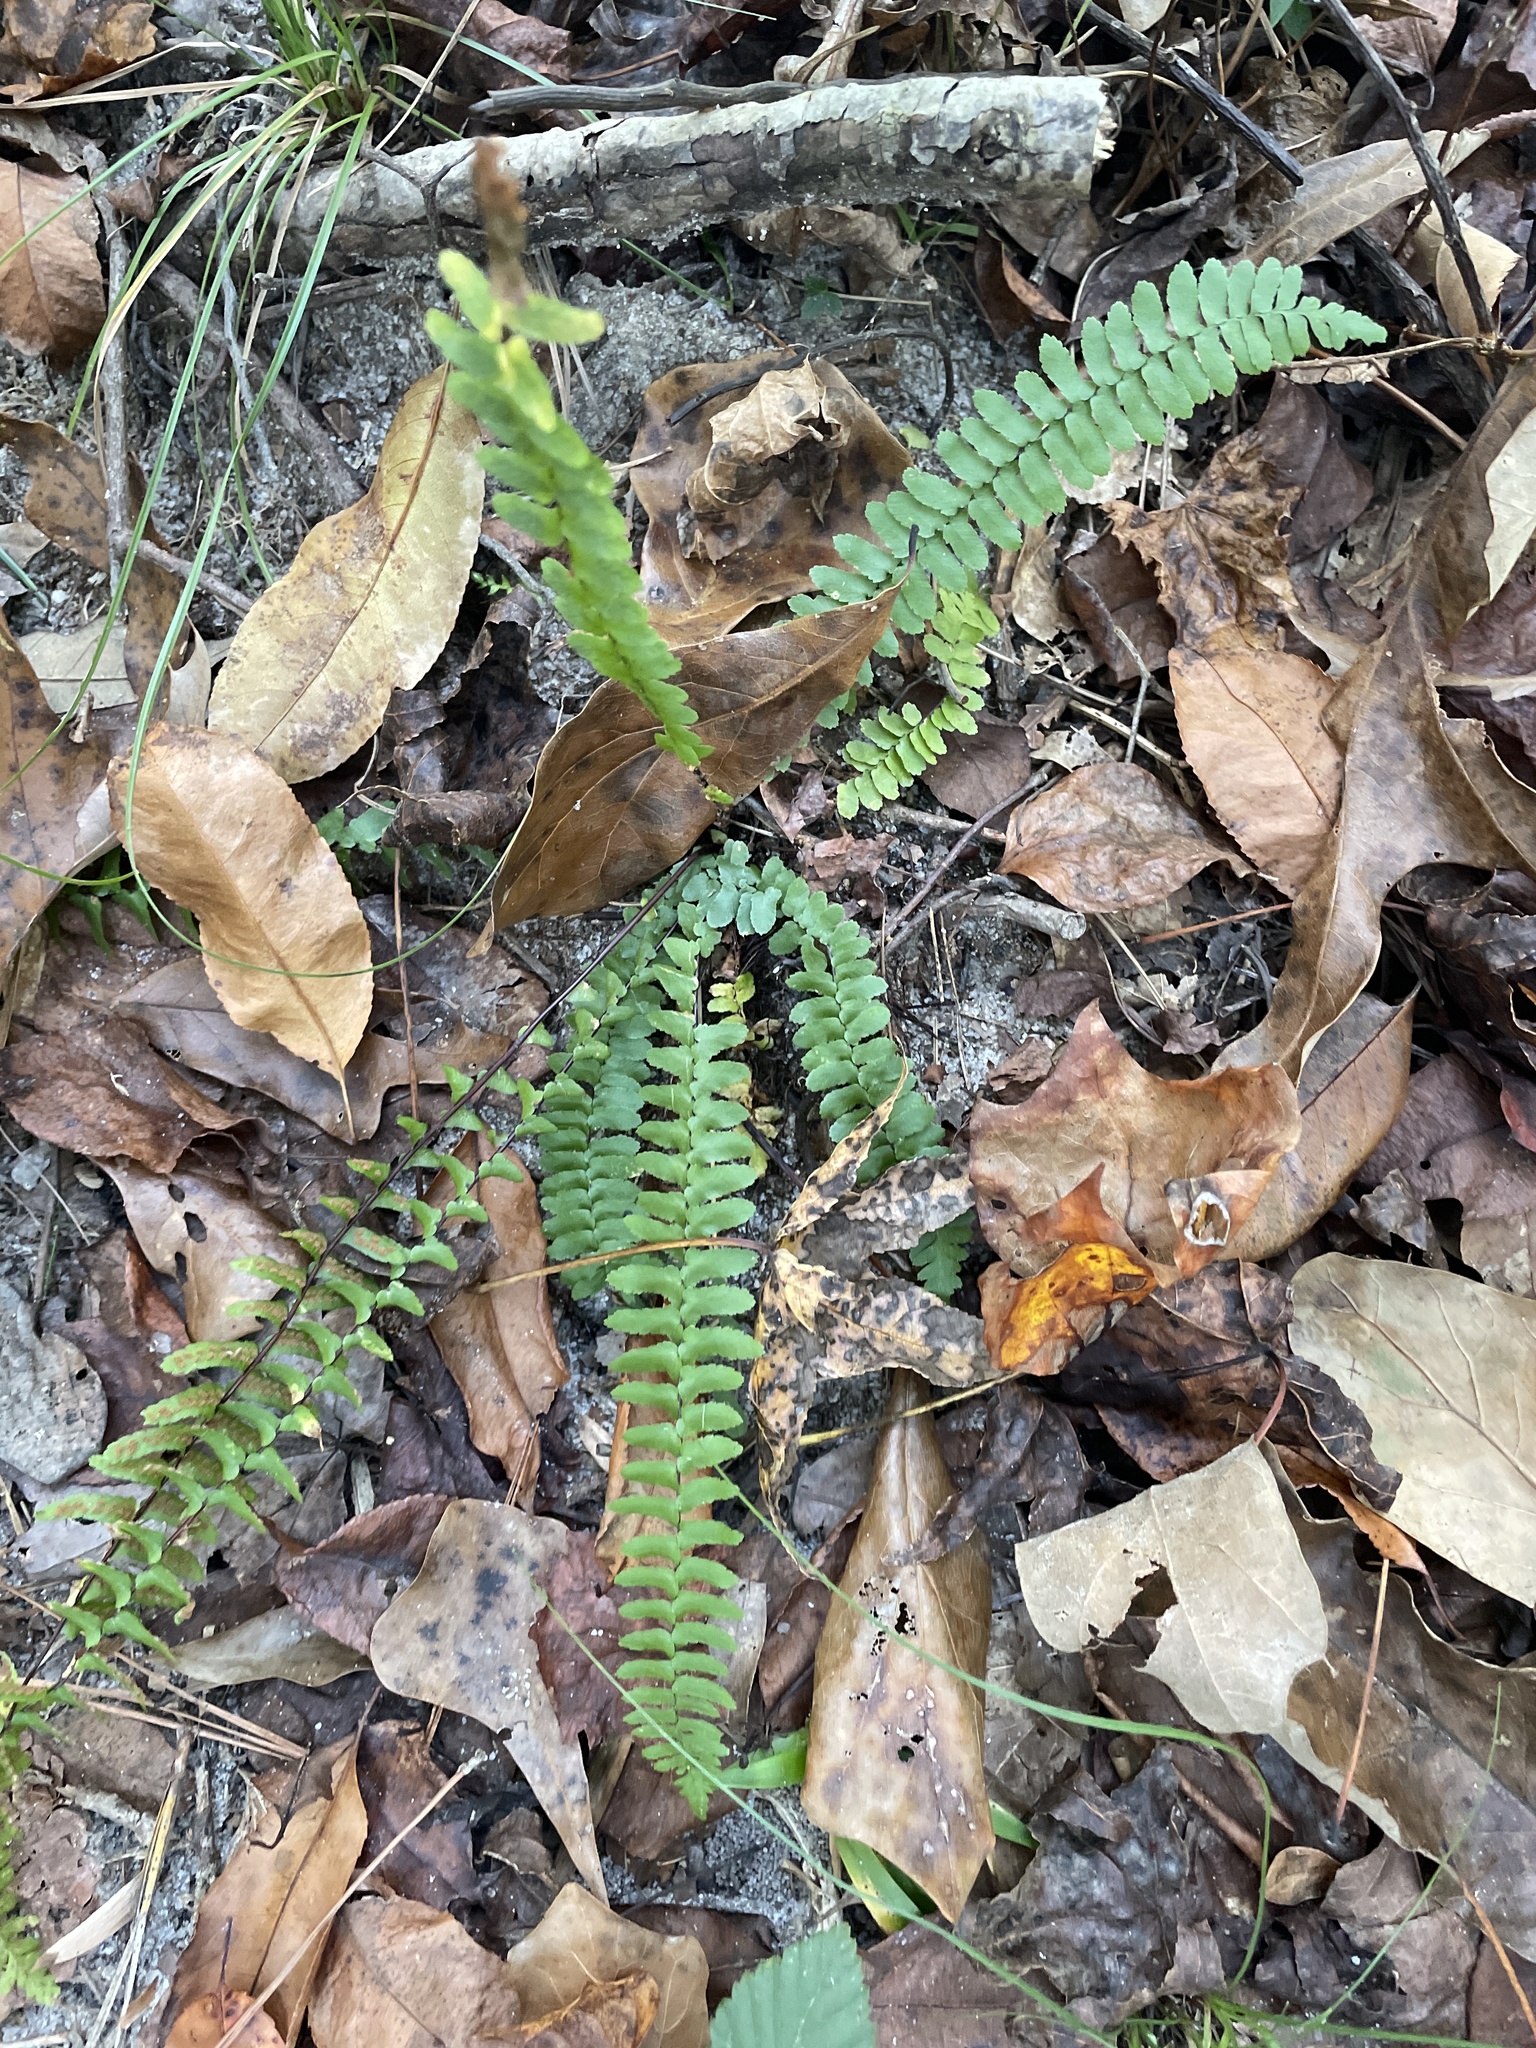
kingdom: Plantae
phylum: Tracheophyta
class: Polypodiopsida
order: Polypodiales
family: Aspleniaceae
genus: Asplenium
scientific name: Asplenium platyneuron
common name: Ebony spleenwort
